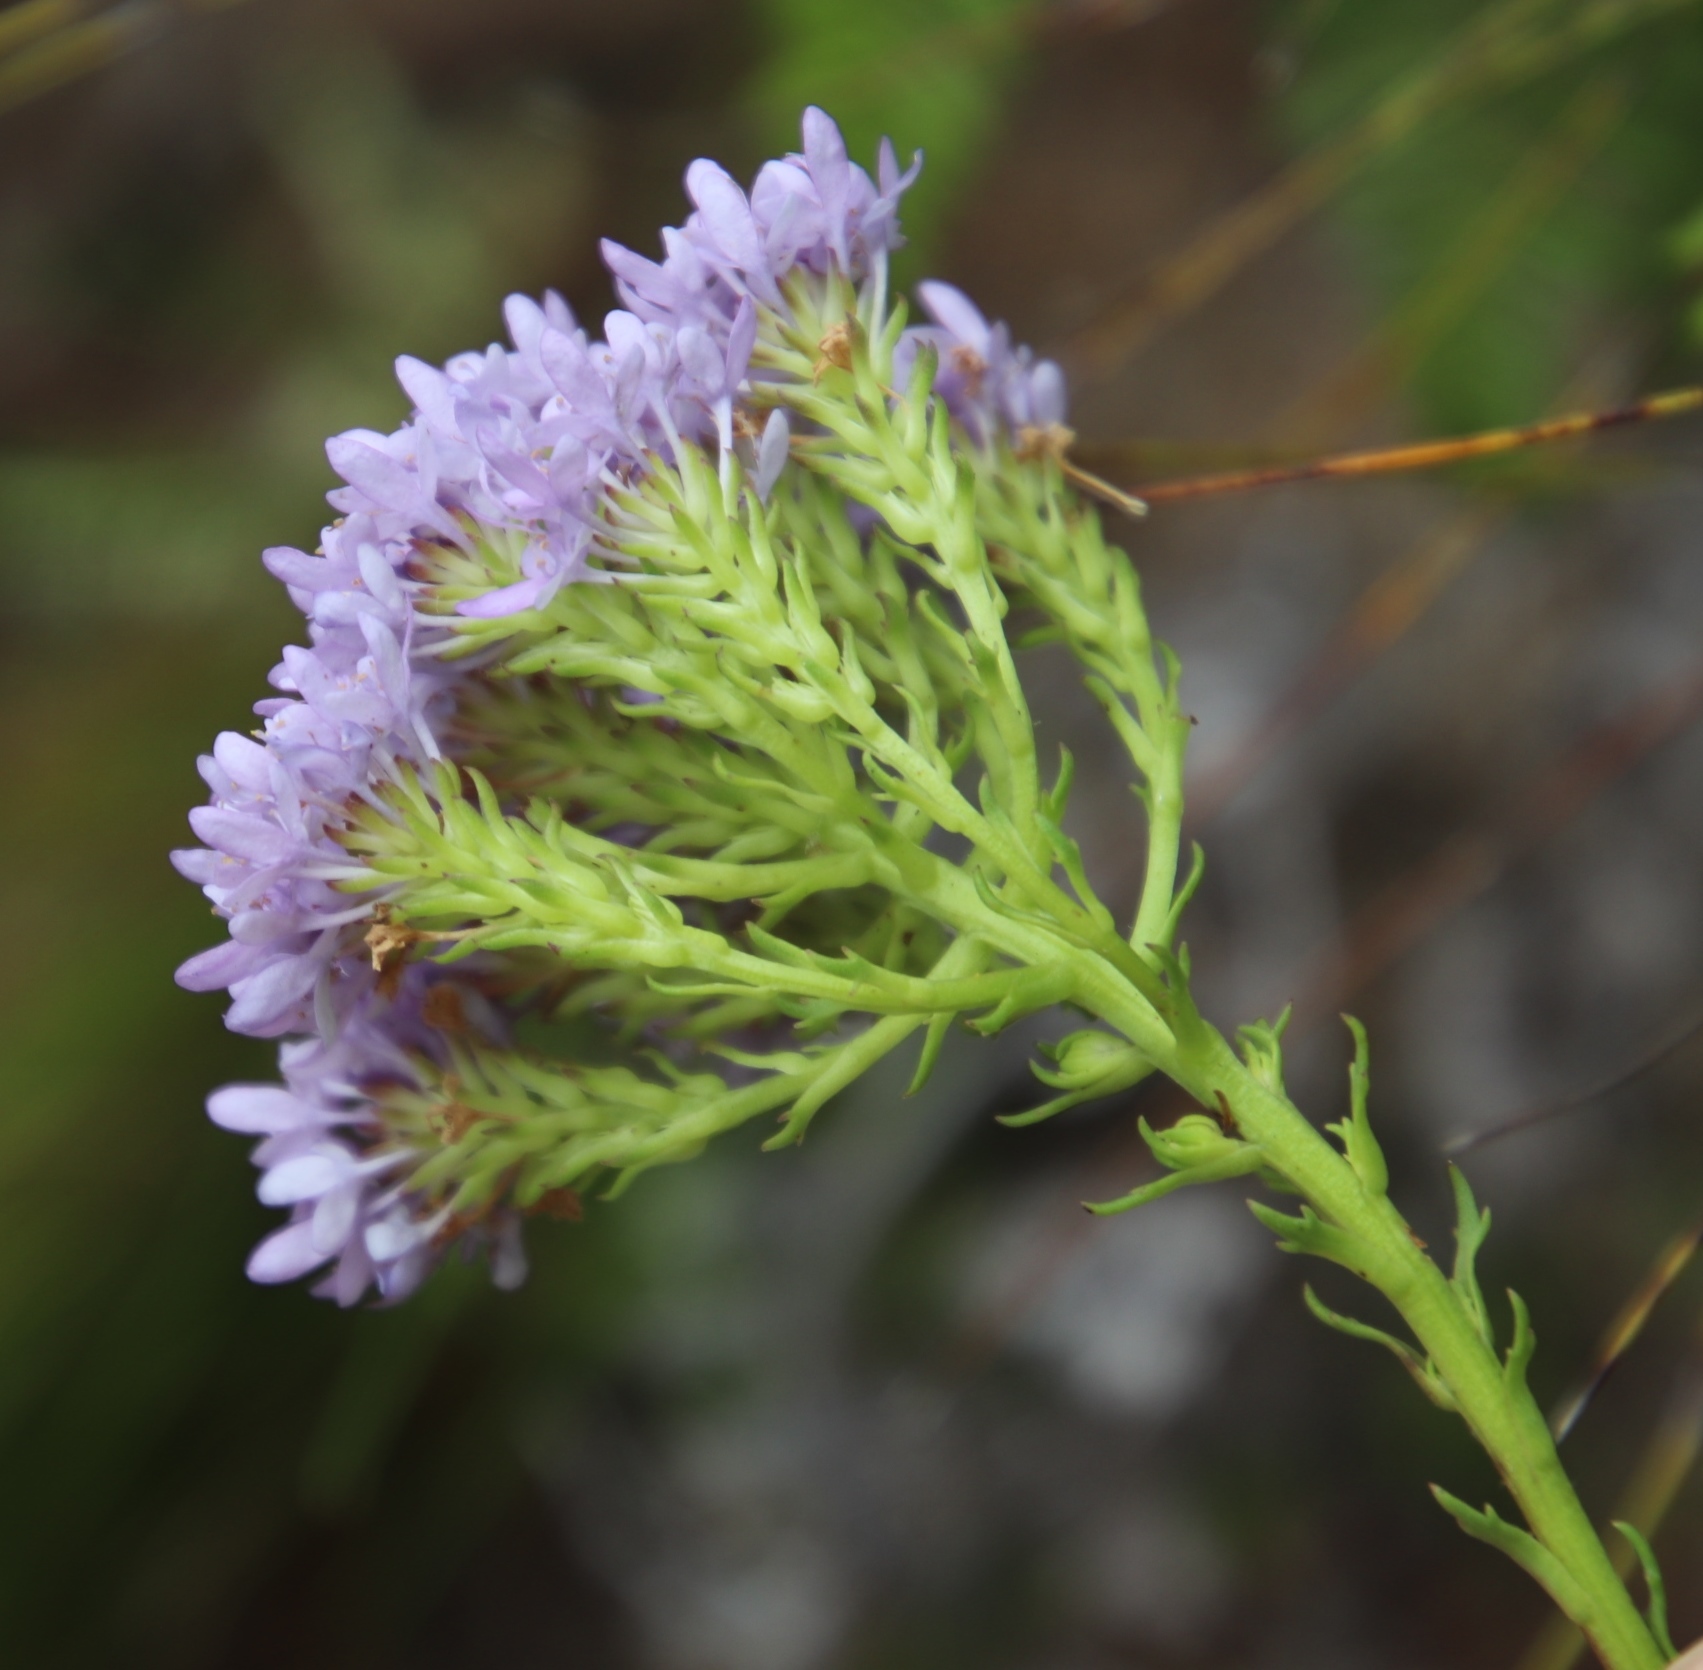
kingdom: Plantae
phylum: Tracheophyta
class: Magnoliopsida
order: Lamiales
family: Scrophulariaceae
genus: Pseudoselago
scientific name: Pseudoselago spuria
